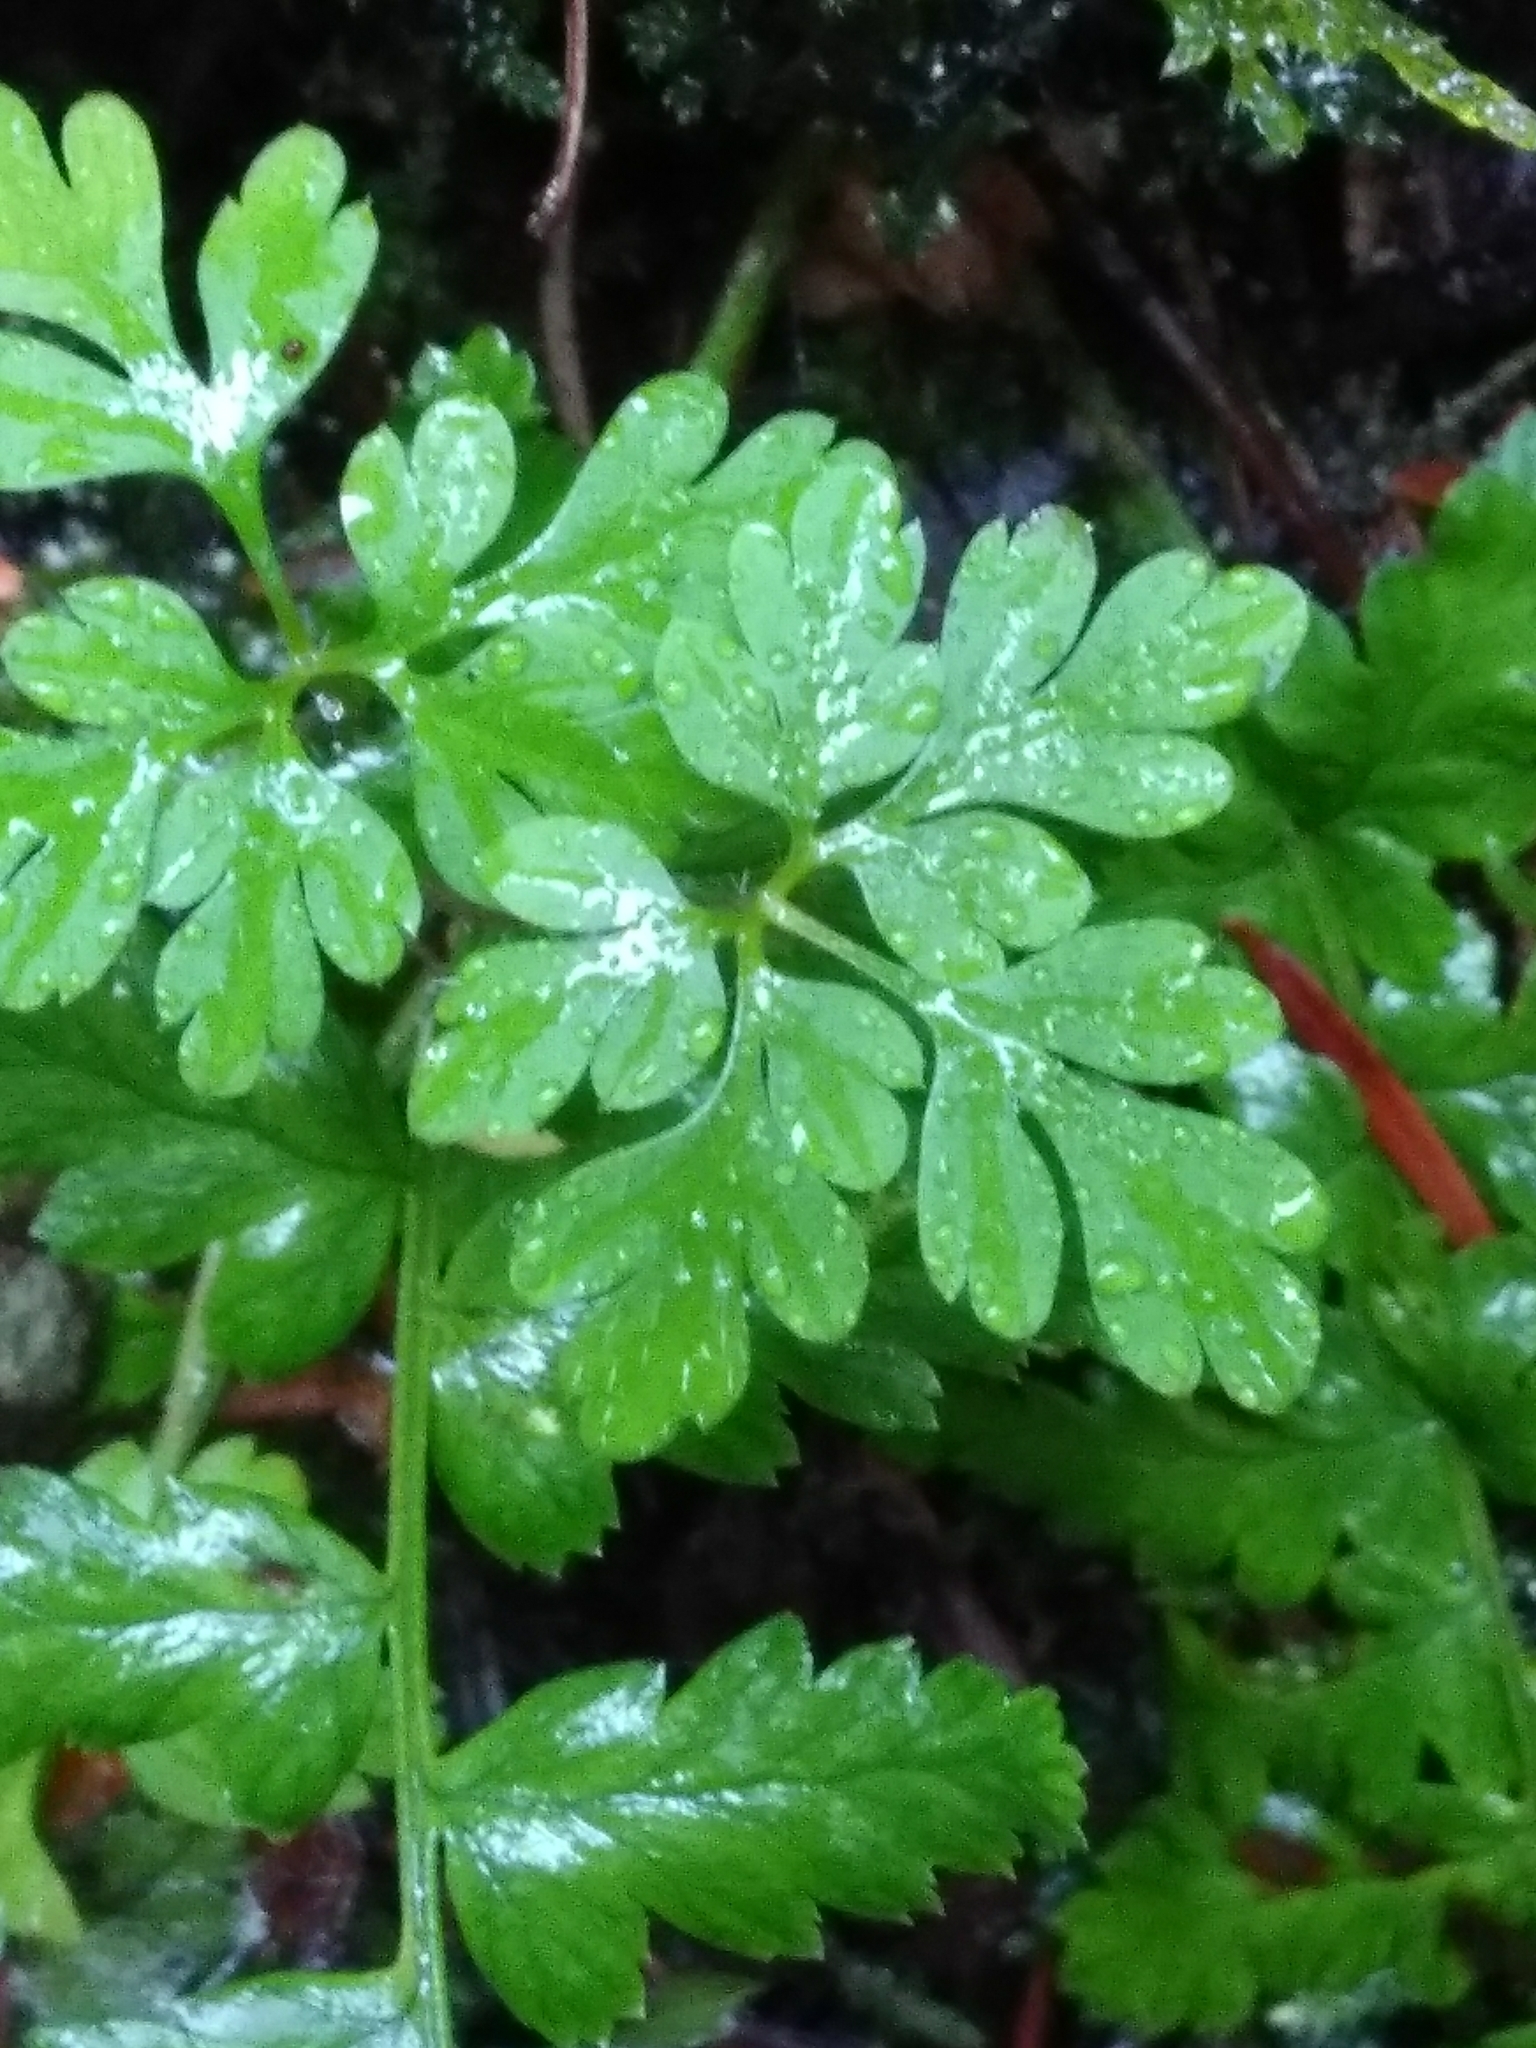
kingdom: Plantae
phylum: Tracheophyta
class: Magnoliopsida
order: Geraniales
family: Geraniaceae
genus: Geranium
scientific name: Geranium robertianum
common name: Herb-robert
